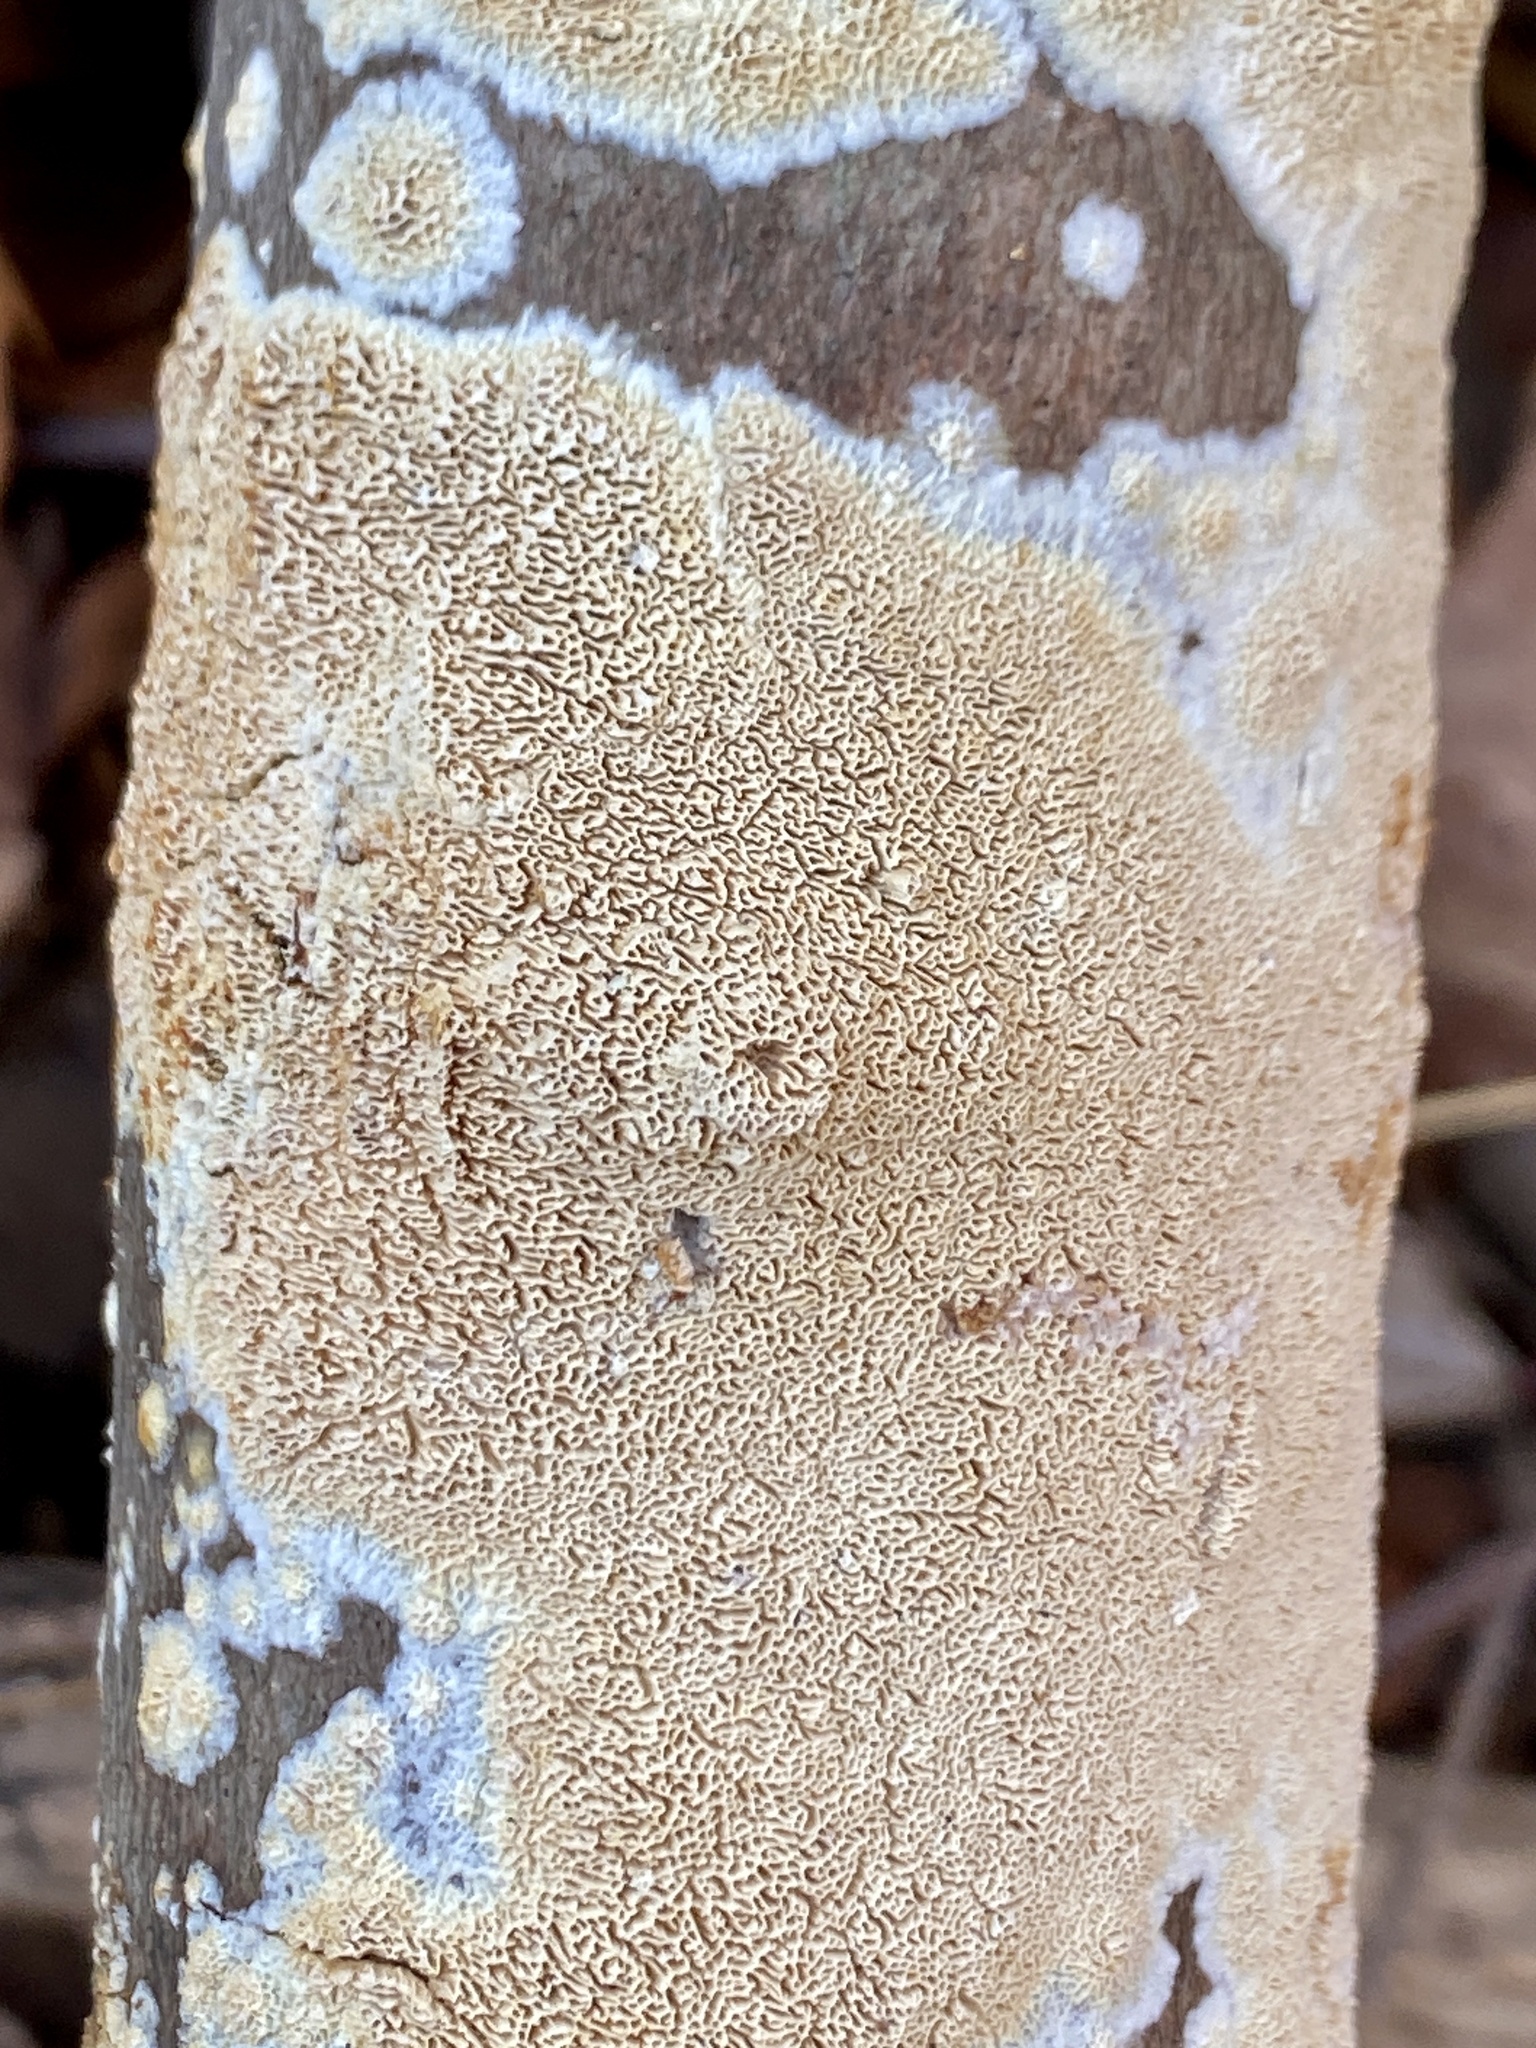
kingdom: Fungi
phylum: Basidiomycota
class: Agaricomycetes
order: Hymenochaetales
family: Schizoporaceae
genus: Schizopora
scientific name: Schizopora paradoxa
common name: Split porecrust
